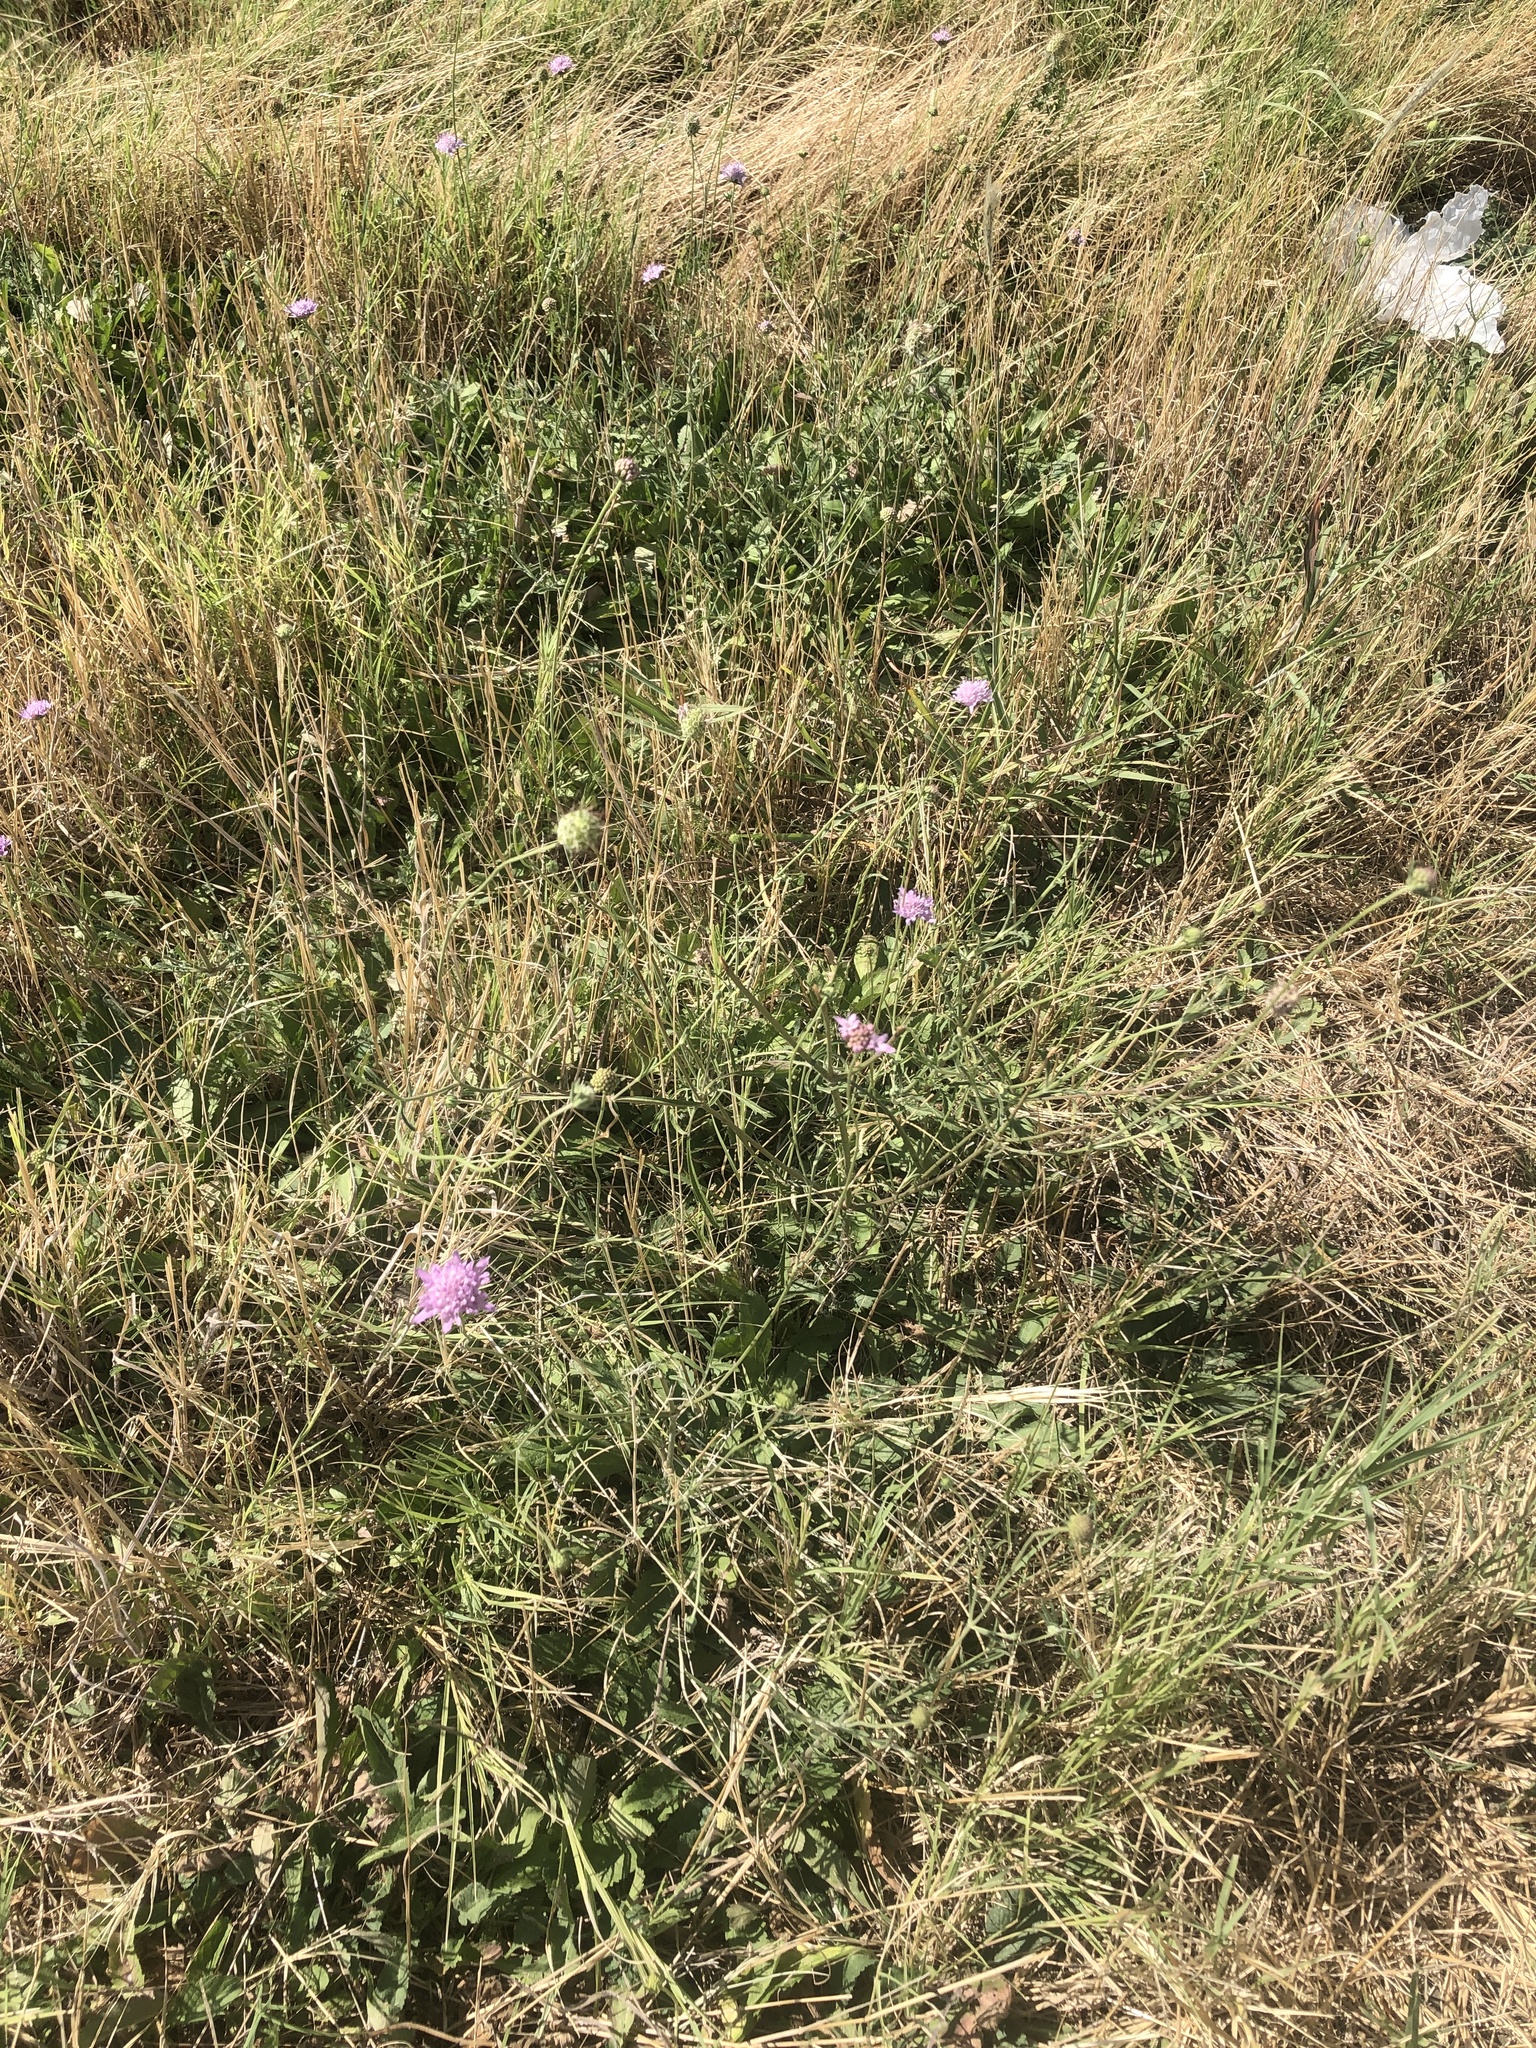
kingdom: Plantae
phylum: Tracheophyta
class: Magnoliopsida
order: Dipsacales
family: Caprifoliaceae
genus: Sixalix
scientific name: Sixalix atropurpurea
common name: Sweet scabious
